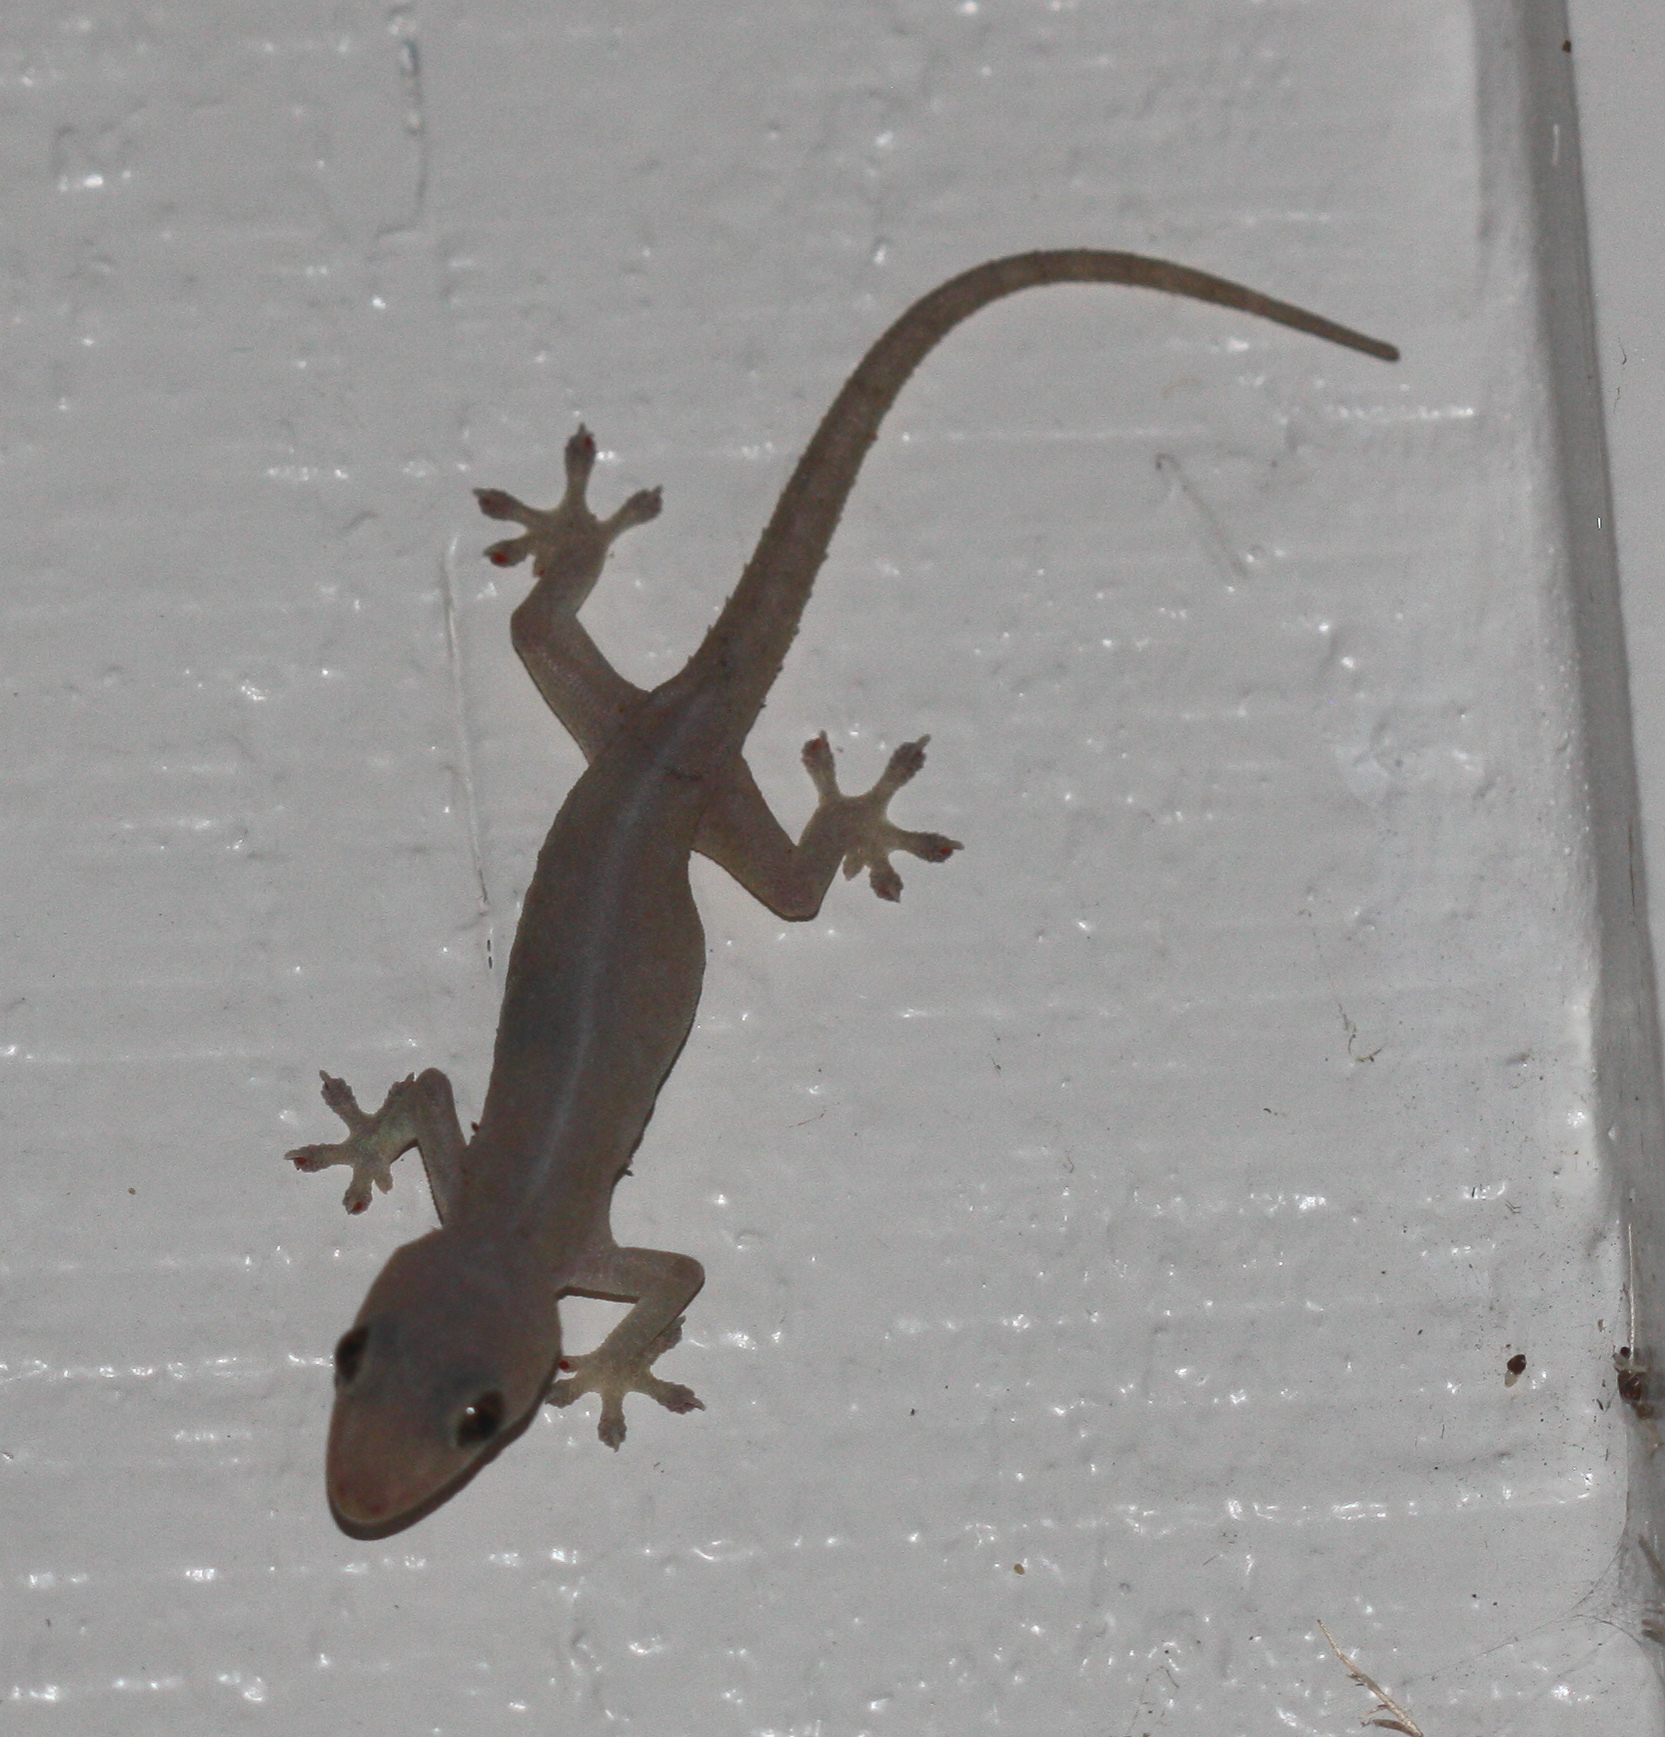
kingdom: Animalia
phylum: Chordata
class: Squamata
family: Gekkonidae
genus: Hemidactylus
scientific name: Hemidactylus frenatus
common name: Common house gecko
